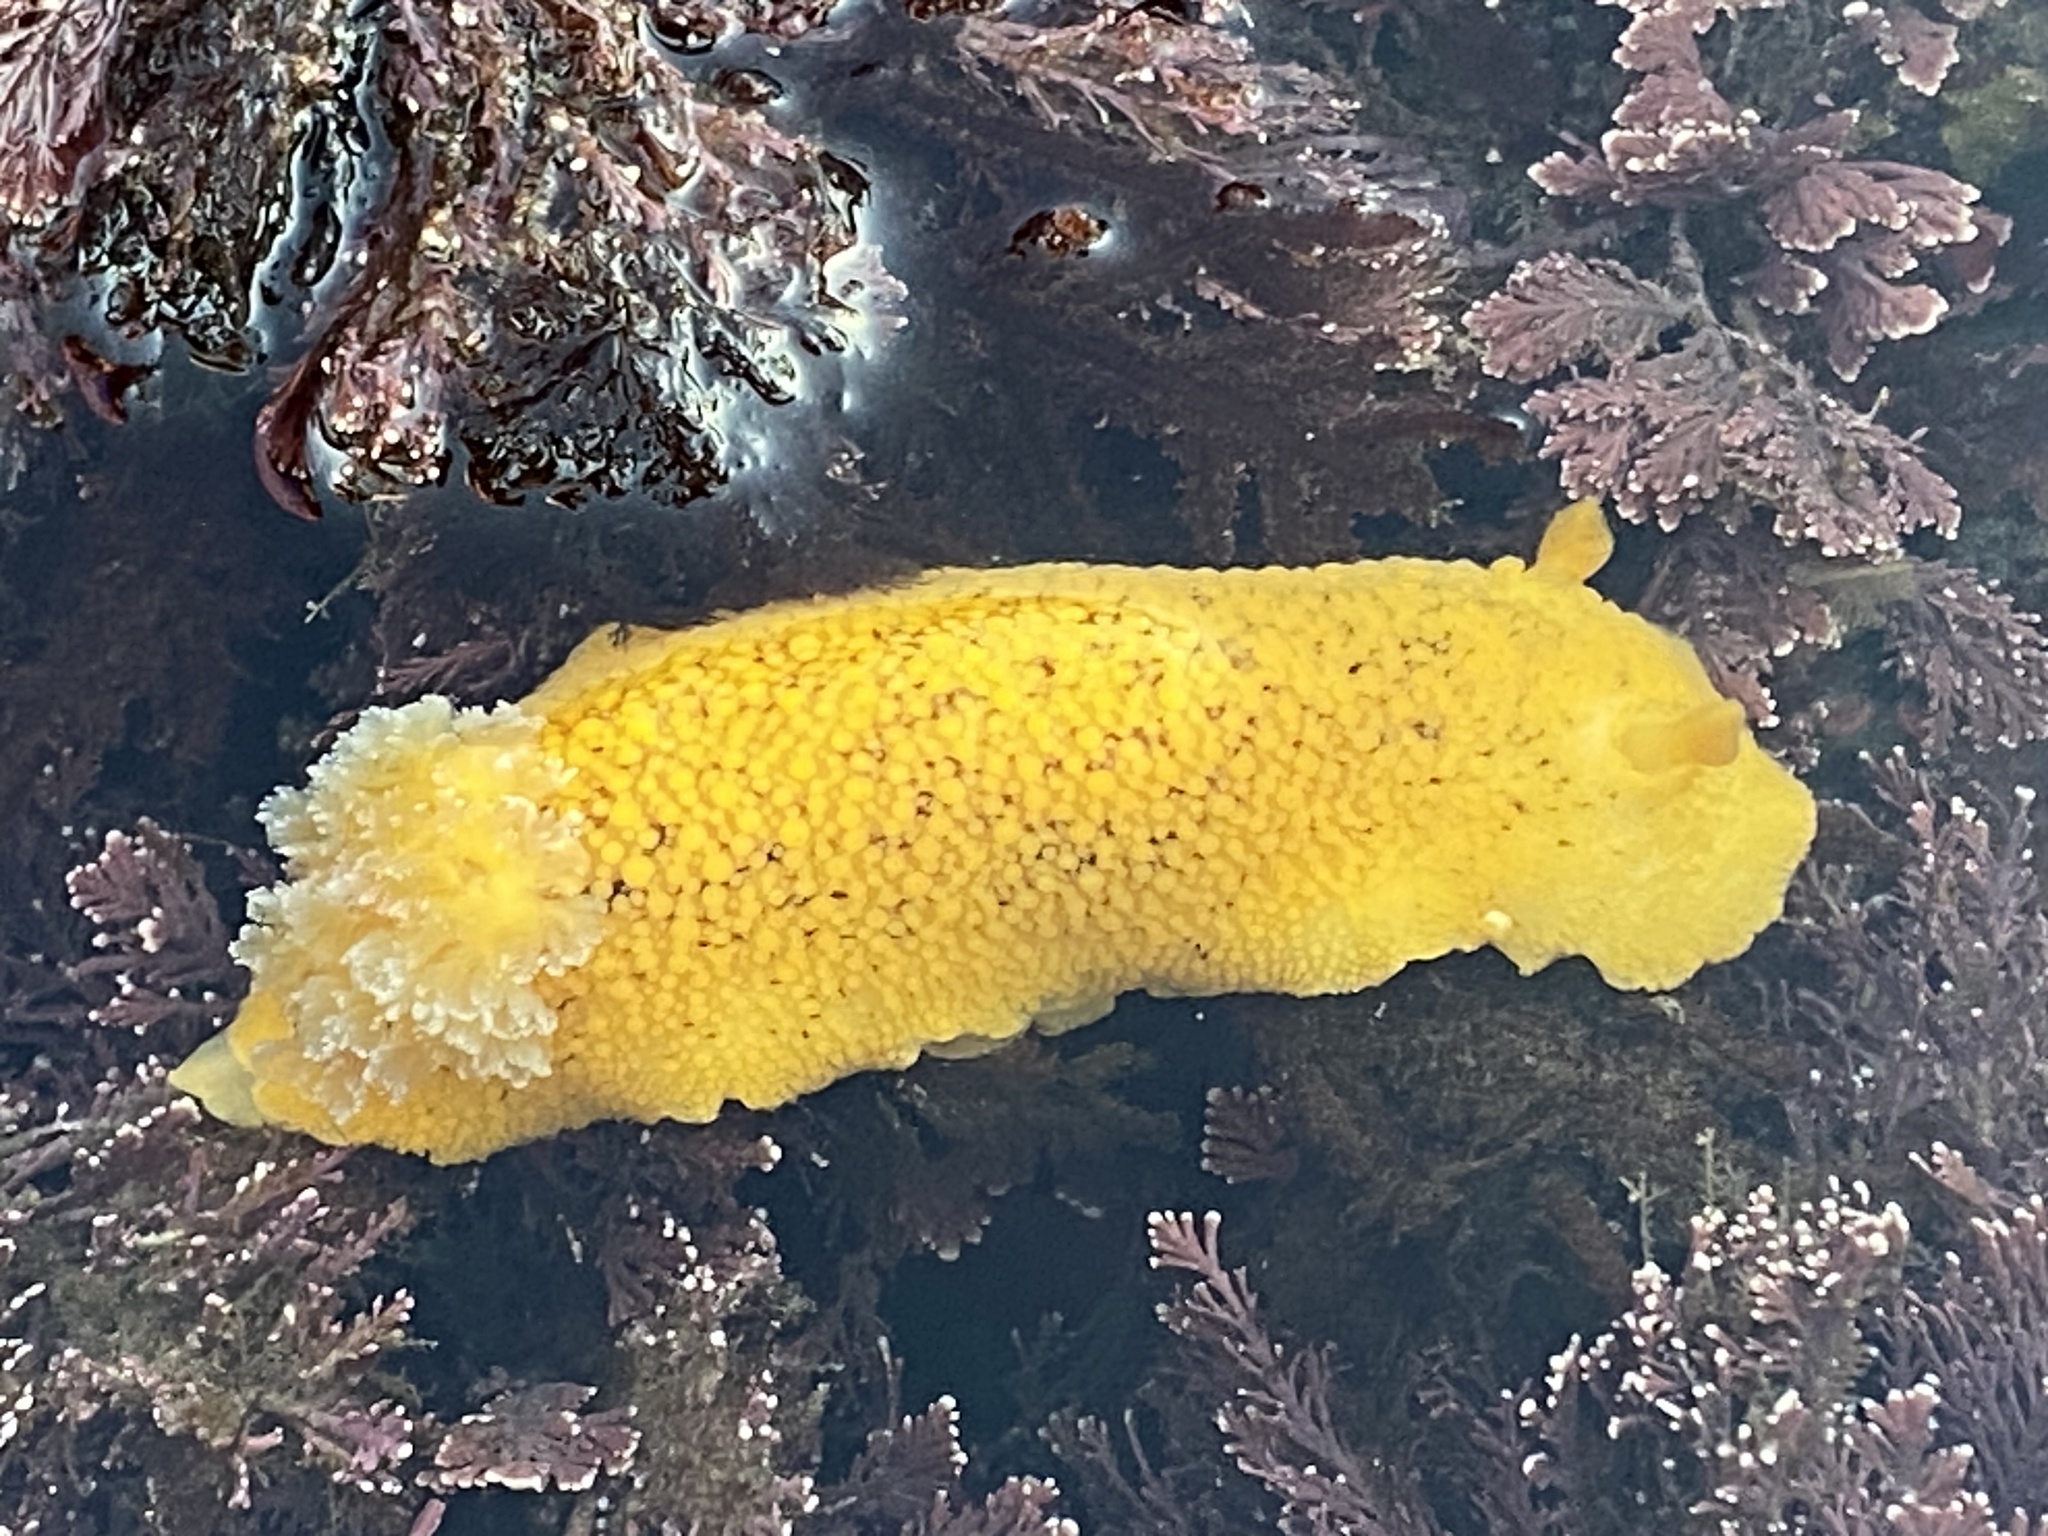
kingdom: Animalia
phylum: Mollusca
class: Gastropoda
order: Nudibranchia
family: Discodorididae
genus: Peltodoris
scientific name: Peltodoris nobilis
